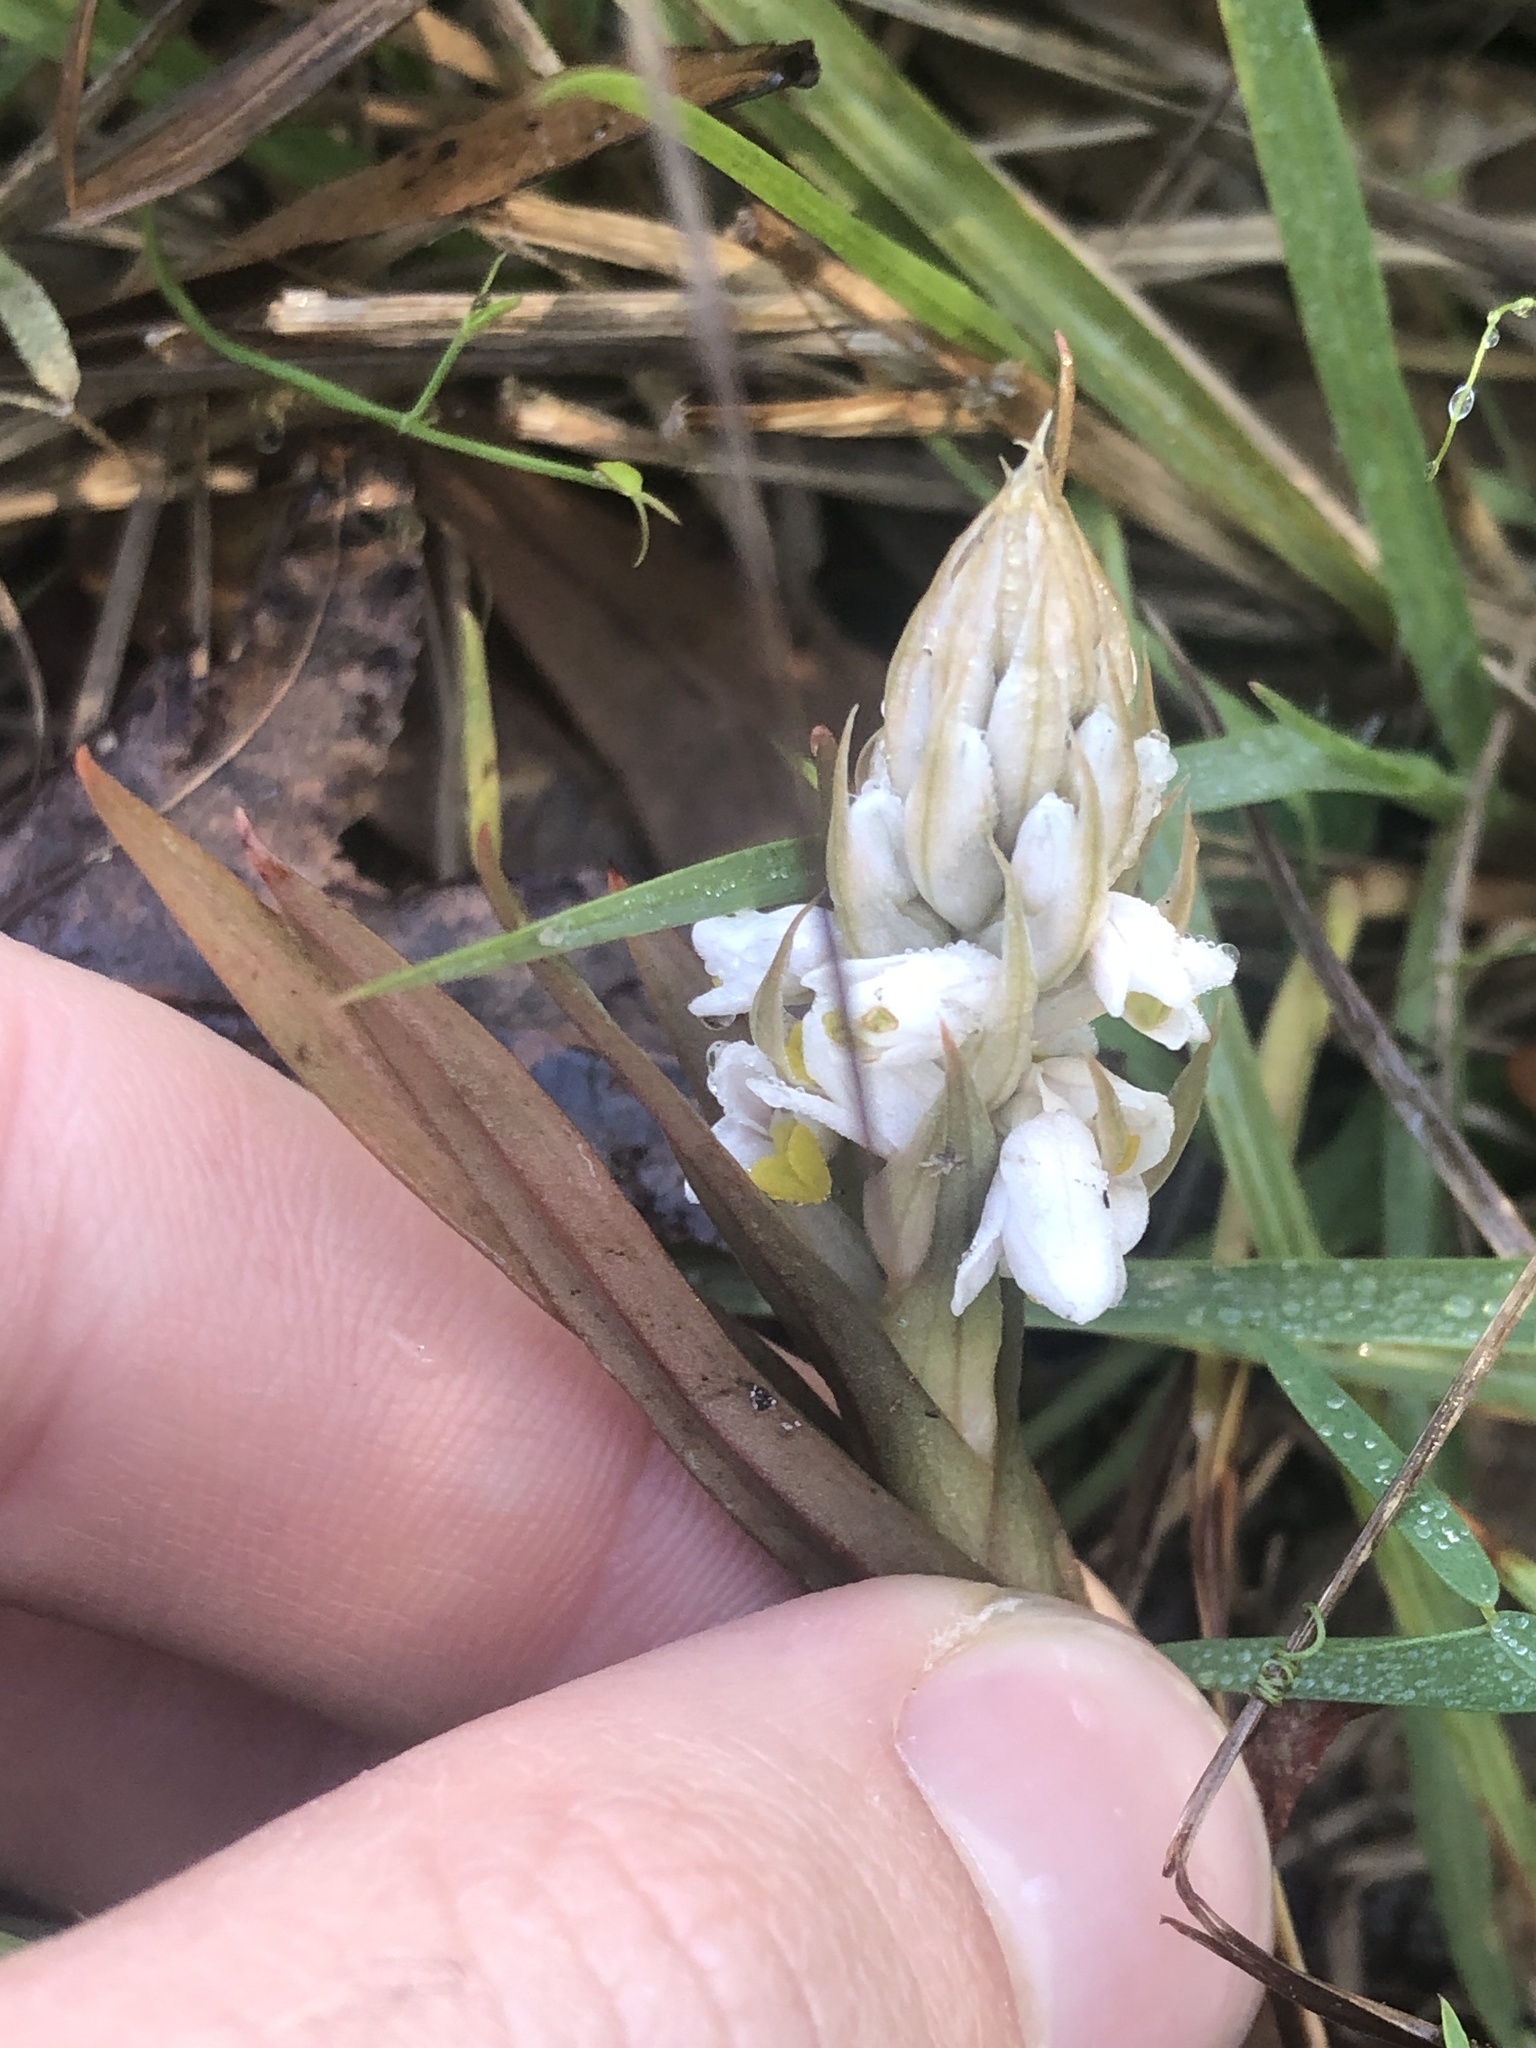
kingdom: Plantae
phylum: Tracheophyta
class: Liliopsida
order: Asparagales
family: Orchidaceae
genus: Zeuxine
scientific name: Zeuxine strateumatica
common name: Soldier's orchid
